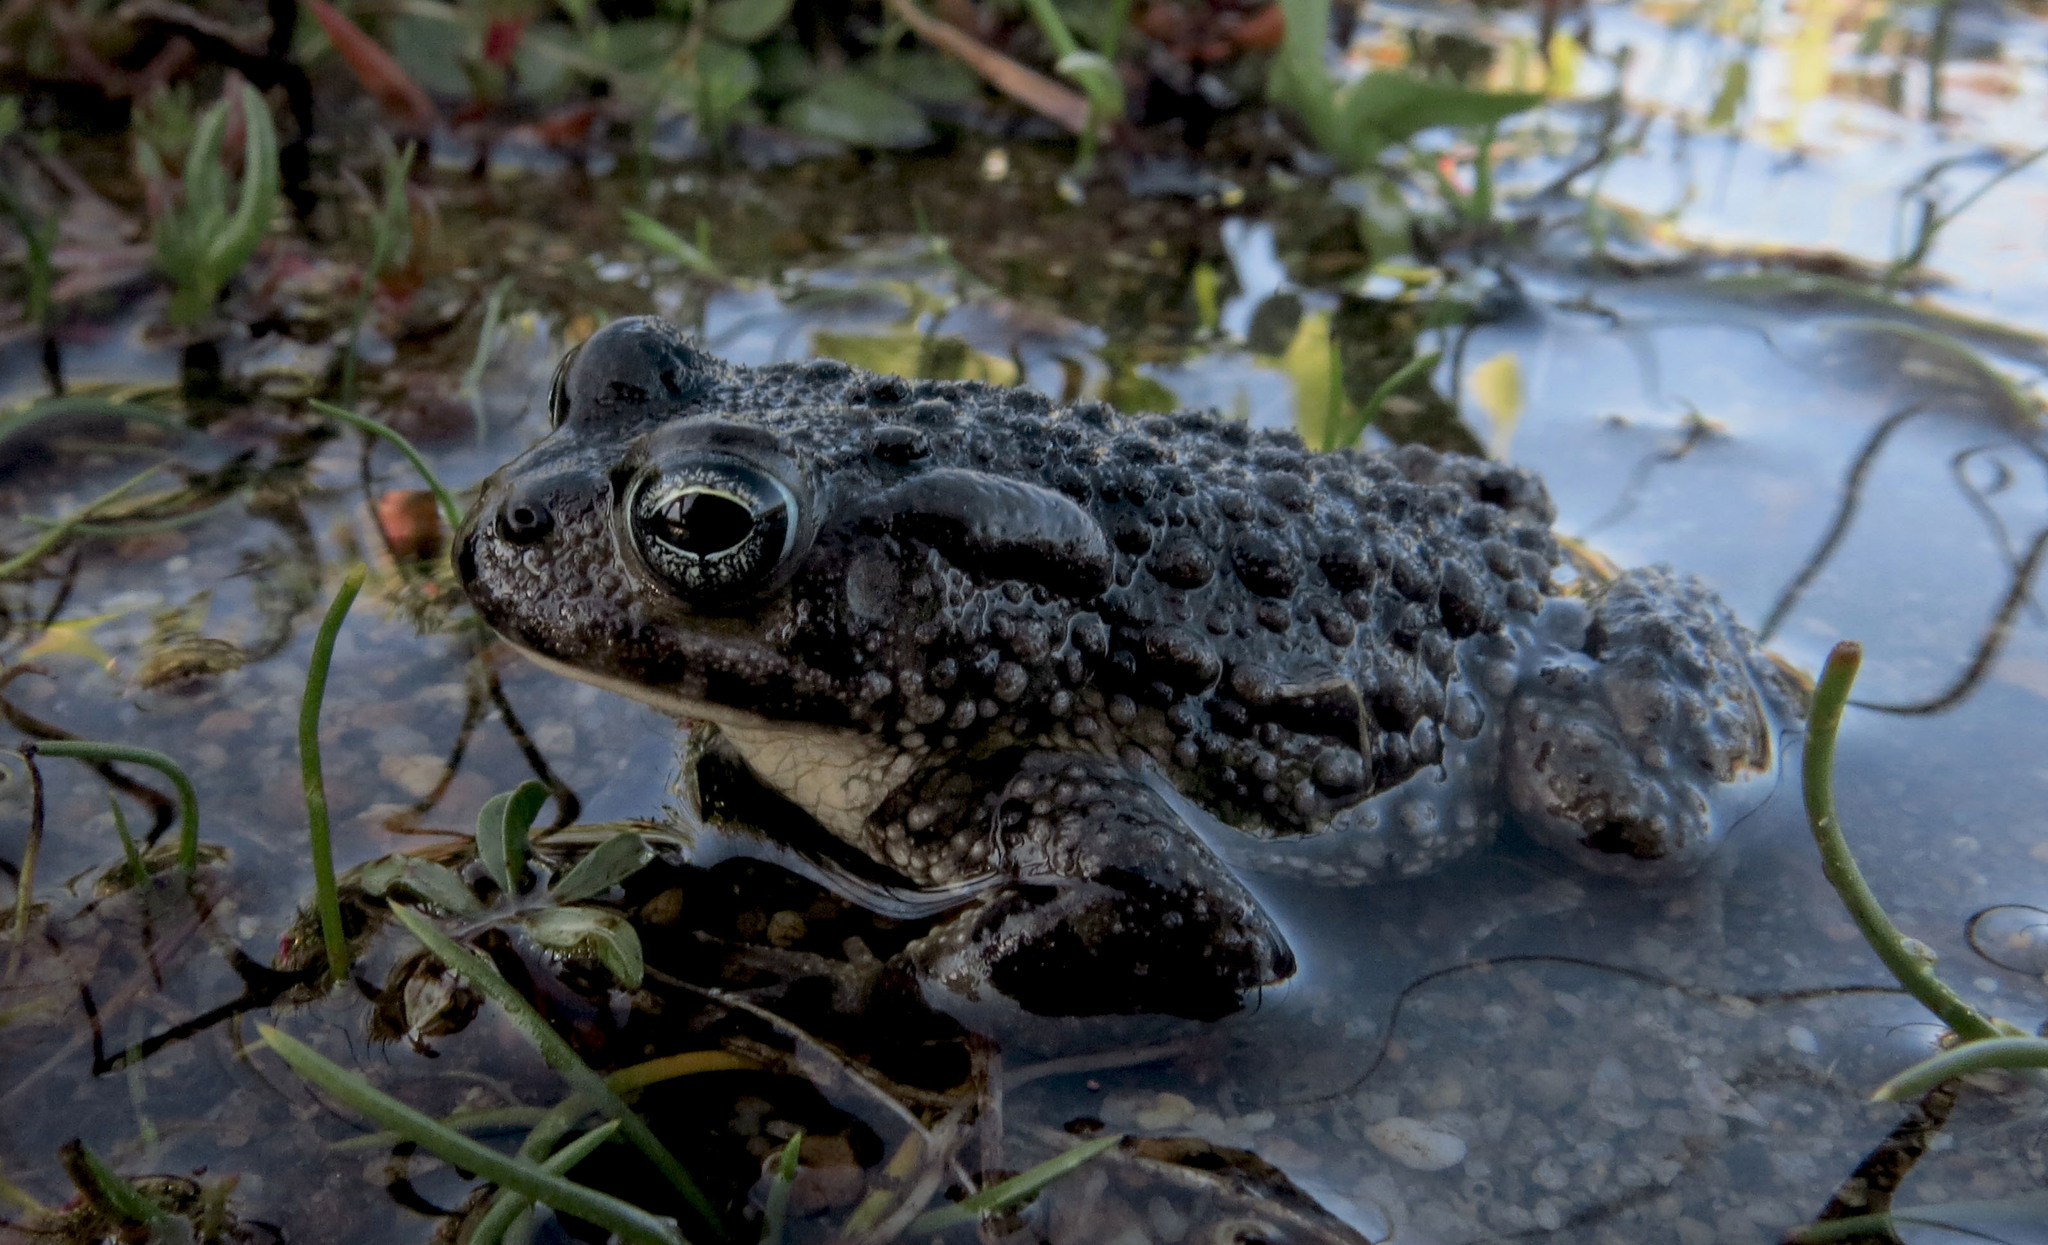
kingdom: Animalia
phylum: Chordata
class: Amphibia
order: Anura
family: Bufonidae
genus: Vandijkophrynus
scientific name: Vandijkophrynus angusticeps
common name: Sand toad
